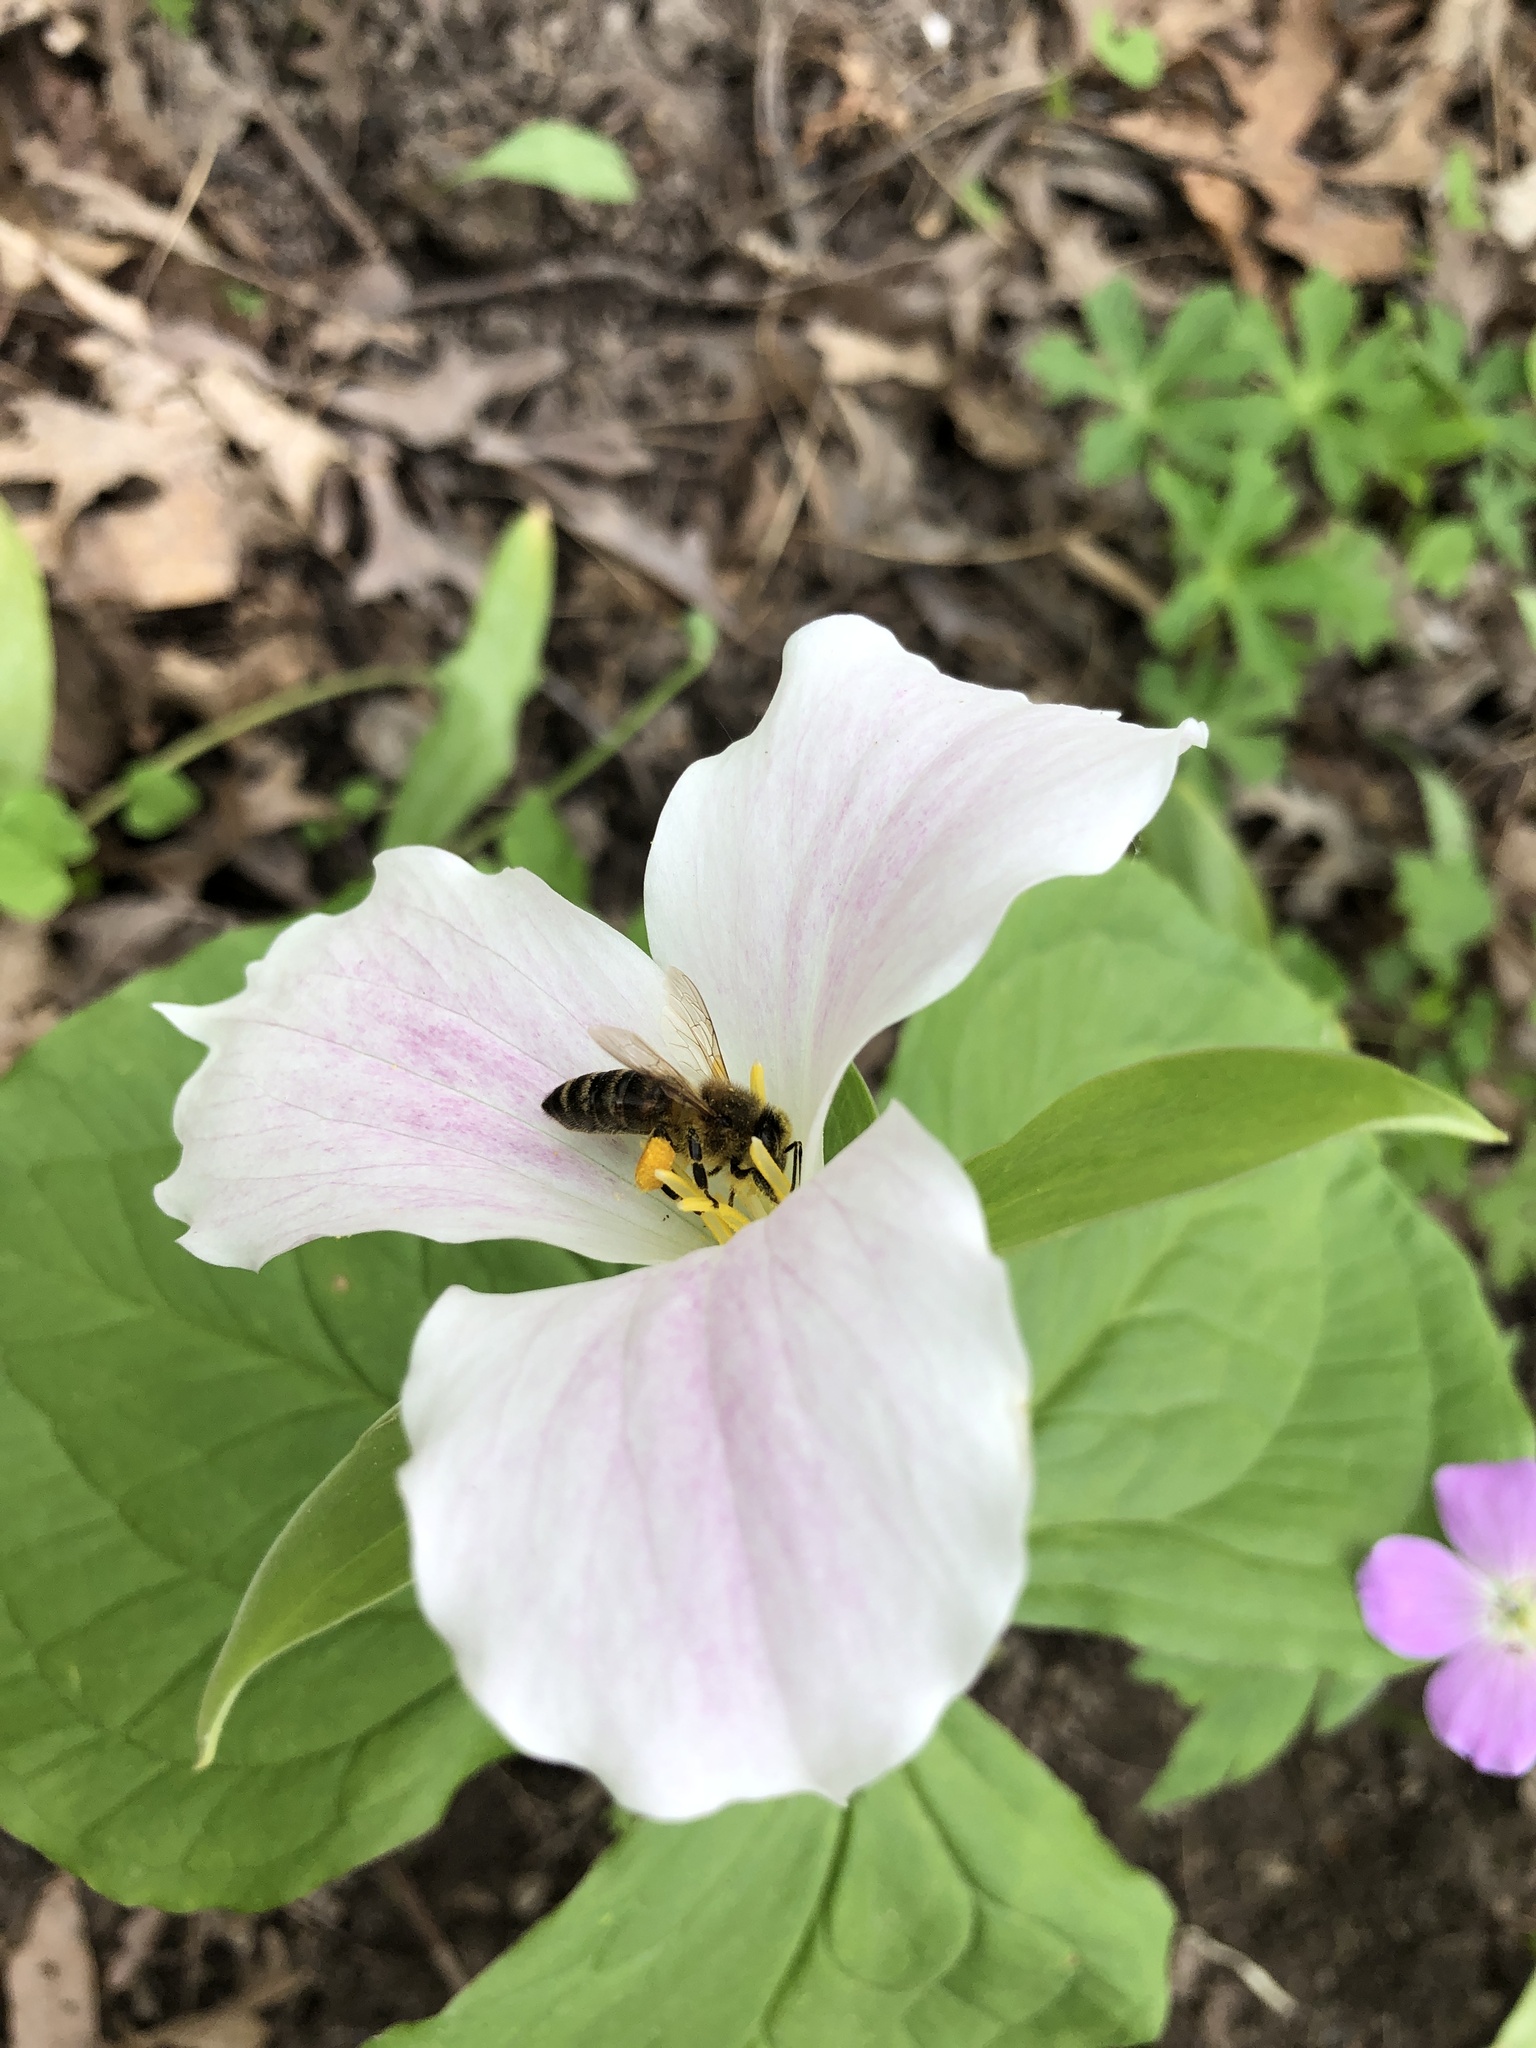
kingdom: Animalia
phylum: Arthropoda
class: Insecta
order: Hymenoptera
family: Apidae
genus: Apis
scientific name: Apis mellifera
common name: Honey bee
